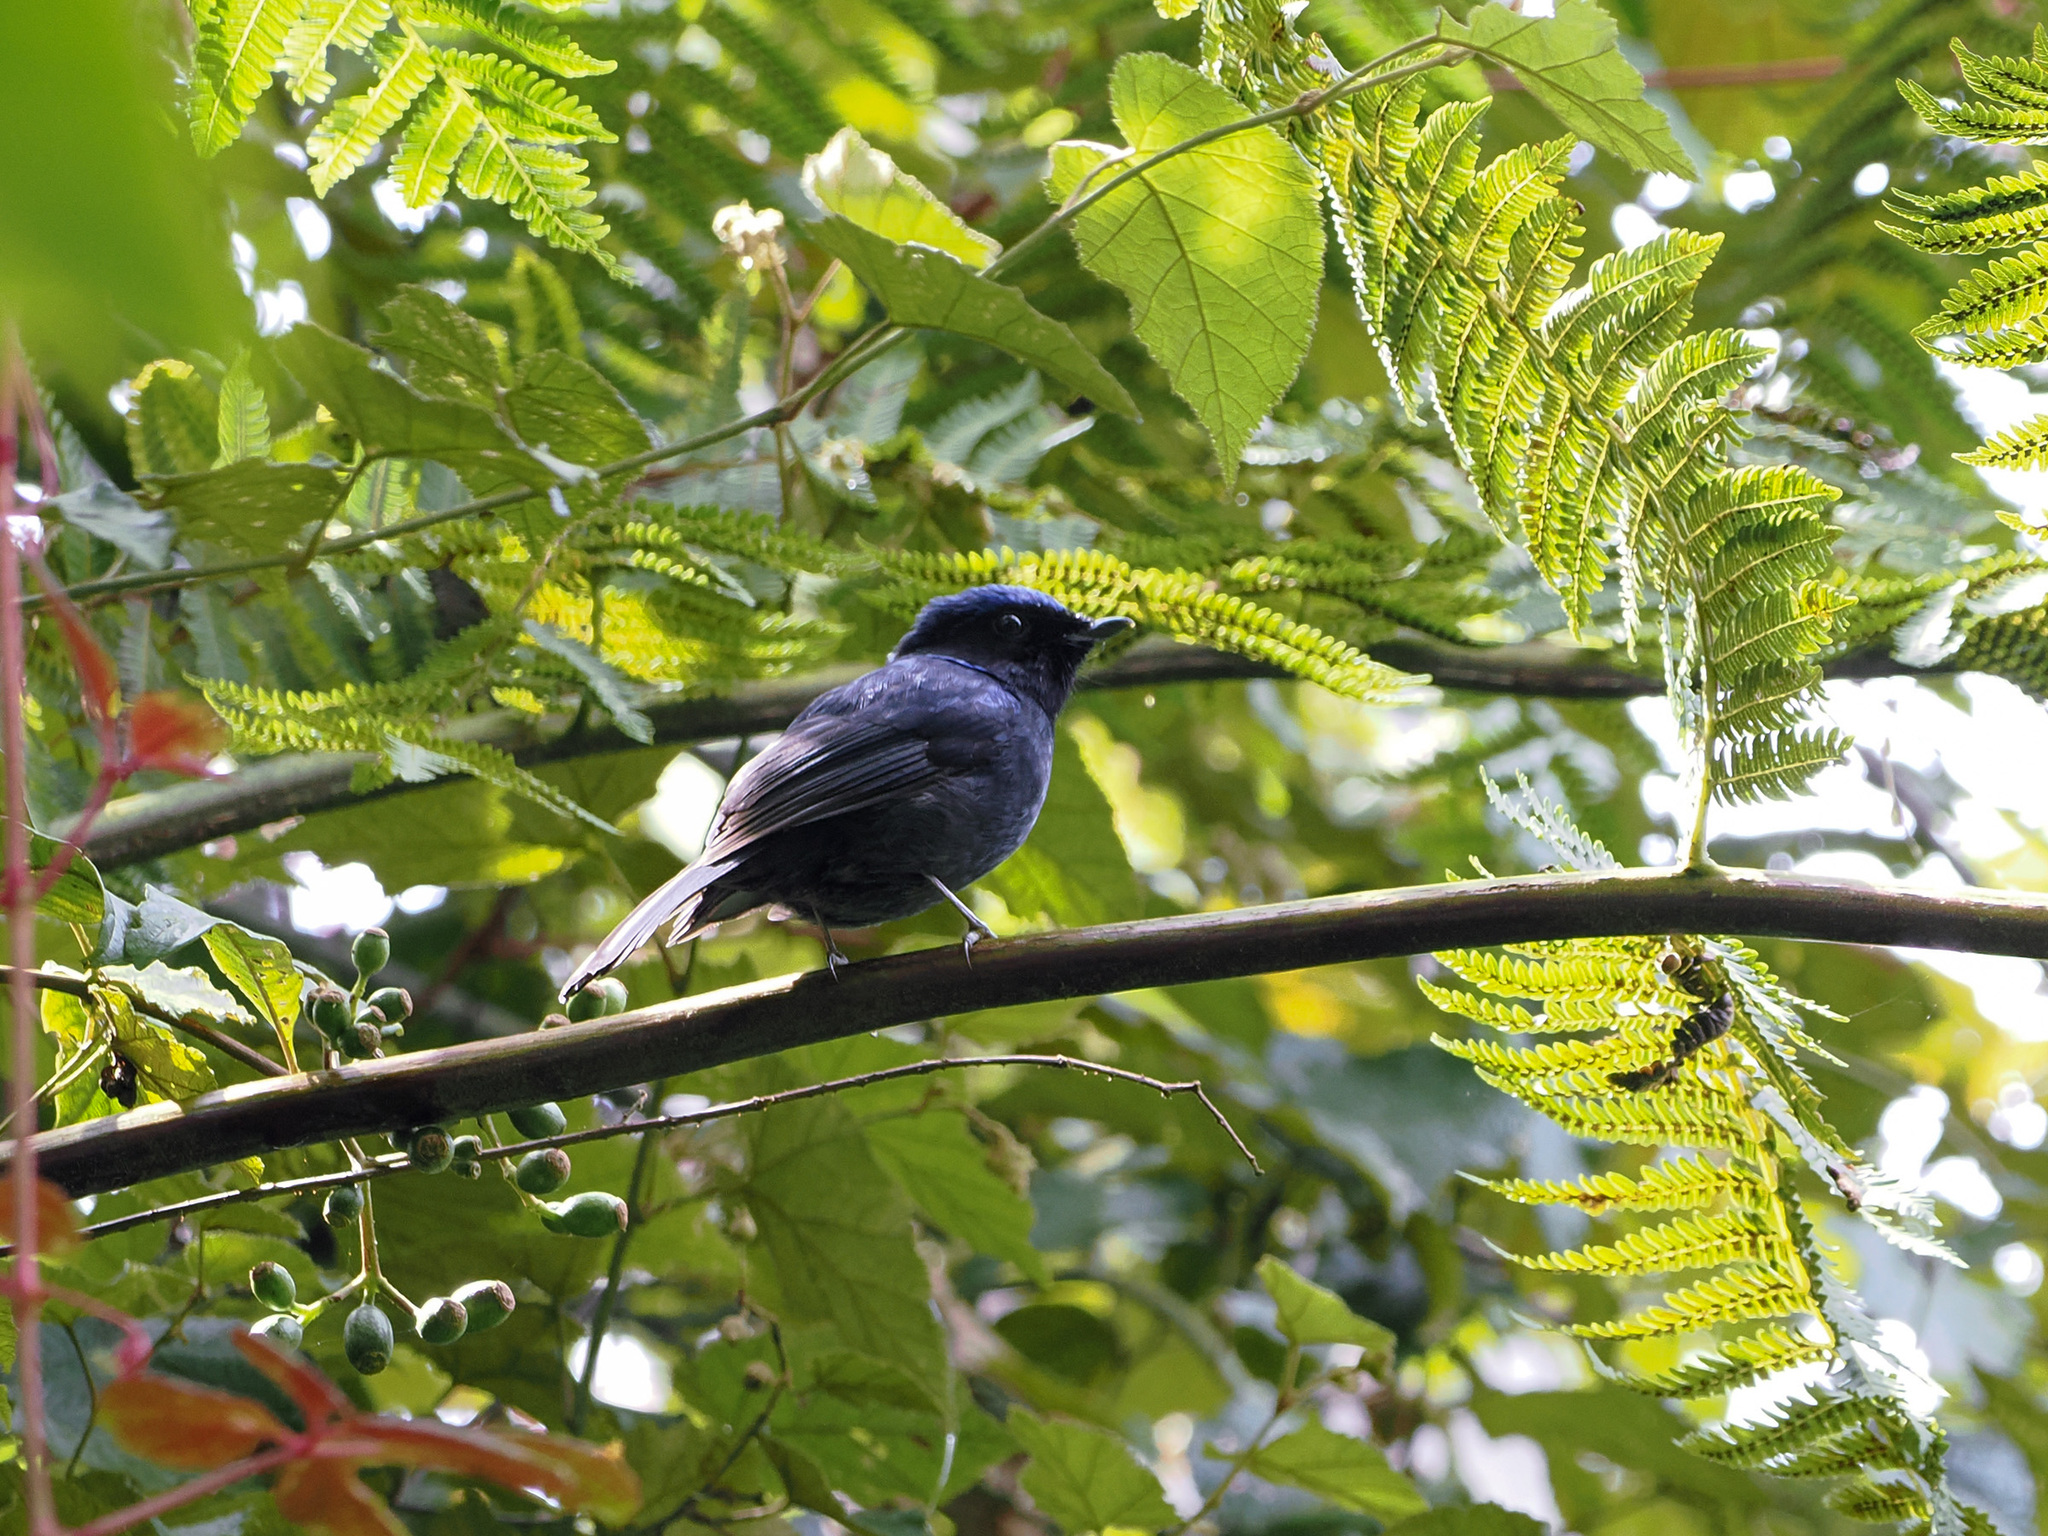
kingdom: Animalia
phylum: Chordata
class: Aves
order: Passeriformes
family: Muscicapidae
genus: Niltava
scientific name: Niltava grandis
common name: Large niltava
